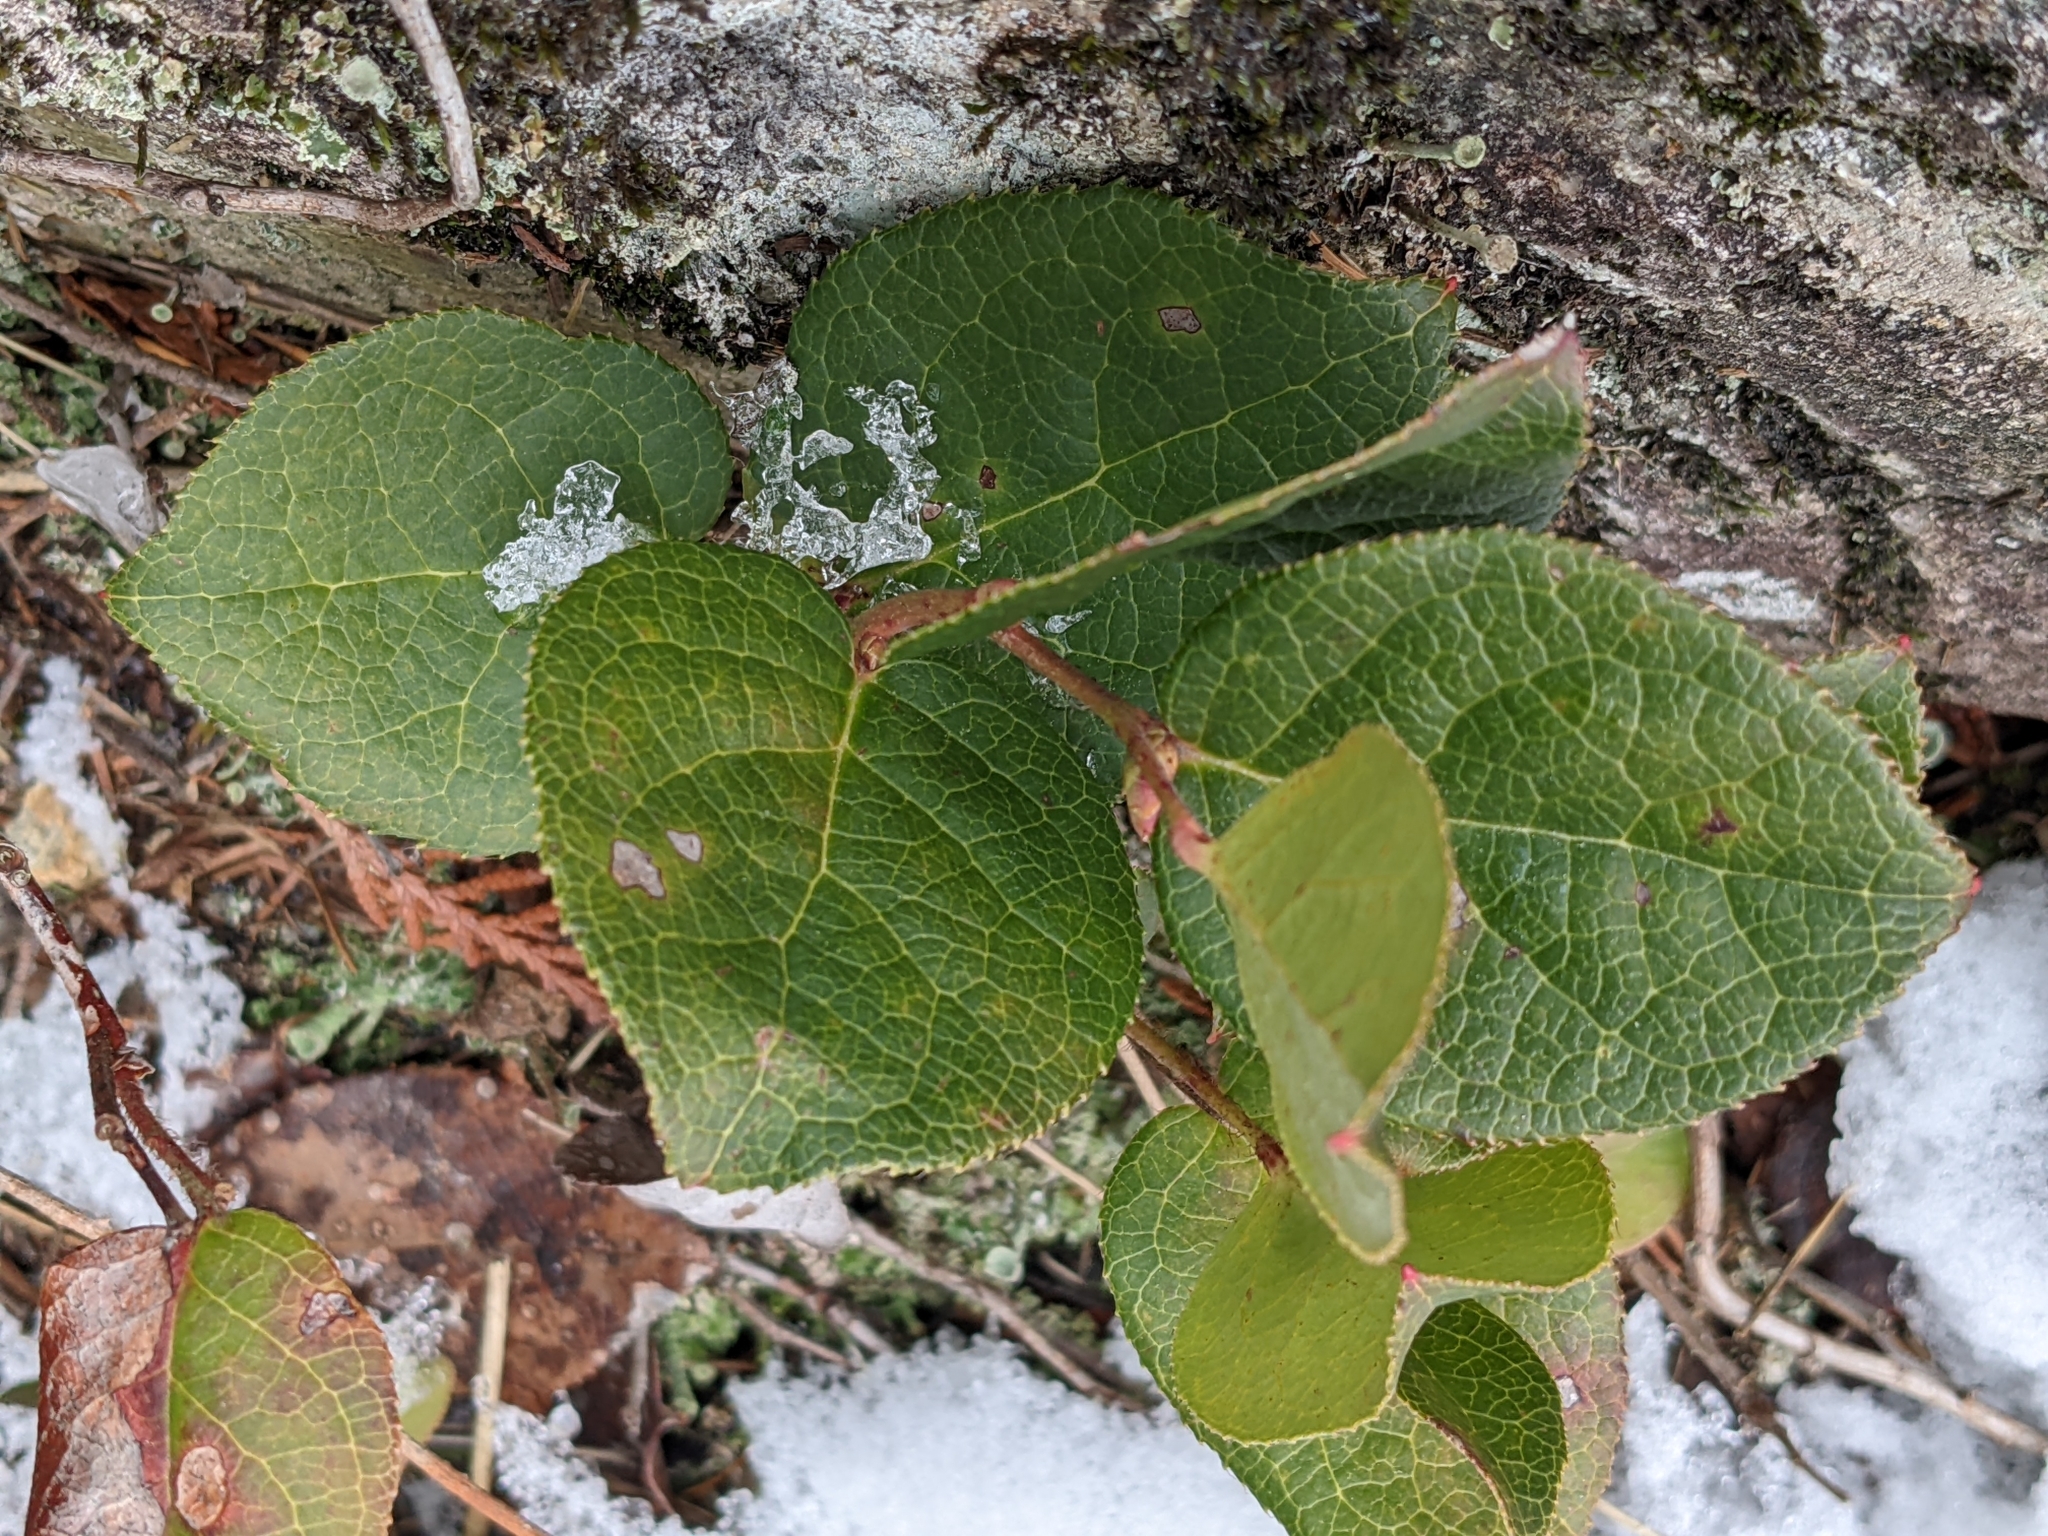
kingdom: Plantae
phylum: Tracheophyta
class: Magnoliopsida
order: Ericales
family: Ericaceae
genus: Gaultheria
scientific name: Gaultheria shallon
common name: Shallon
